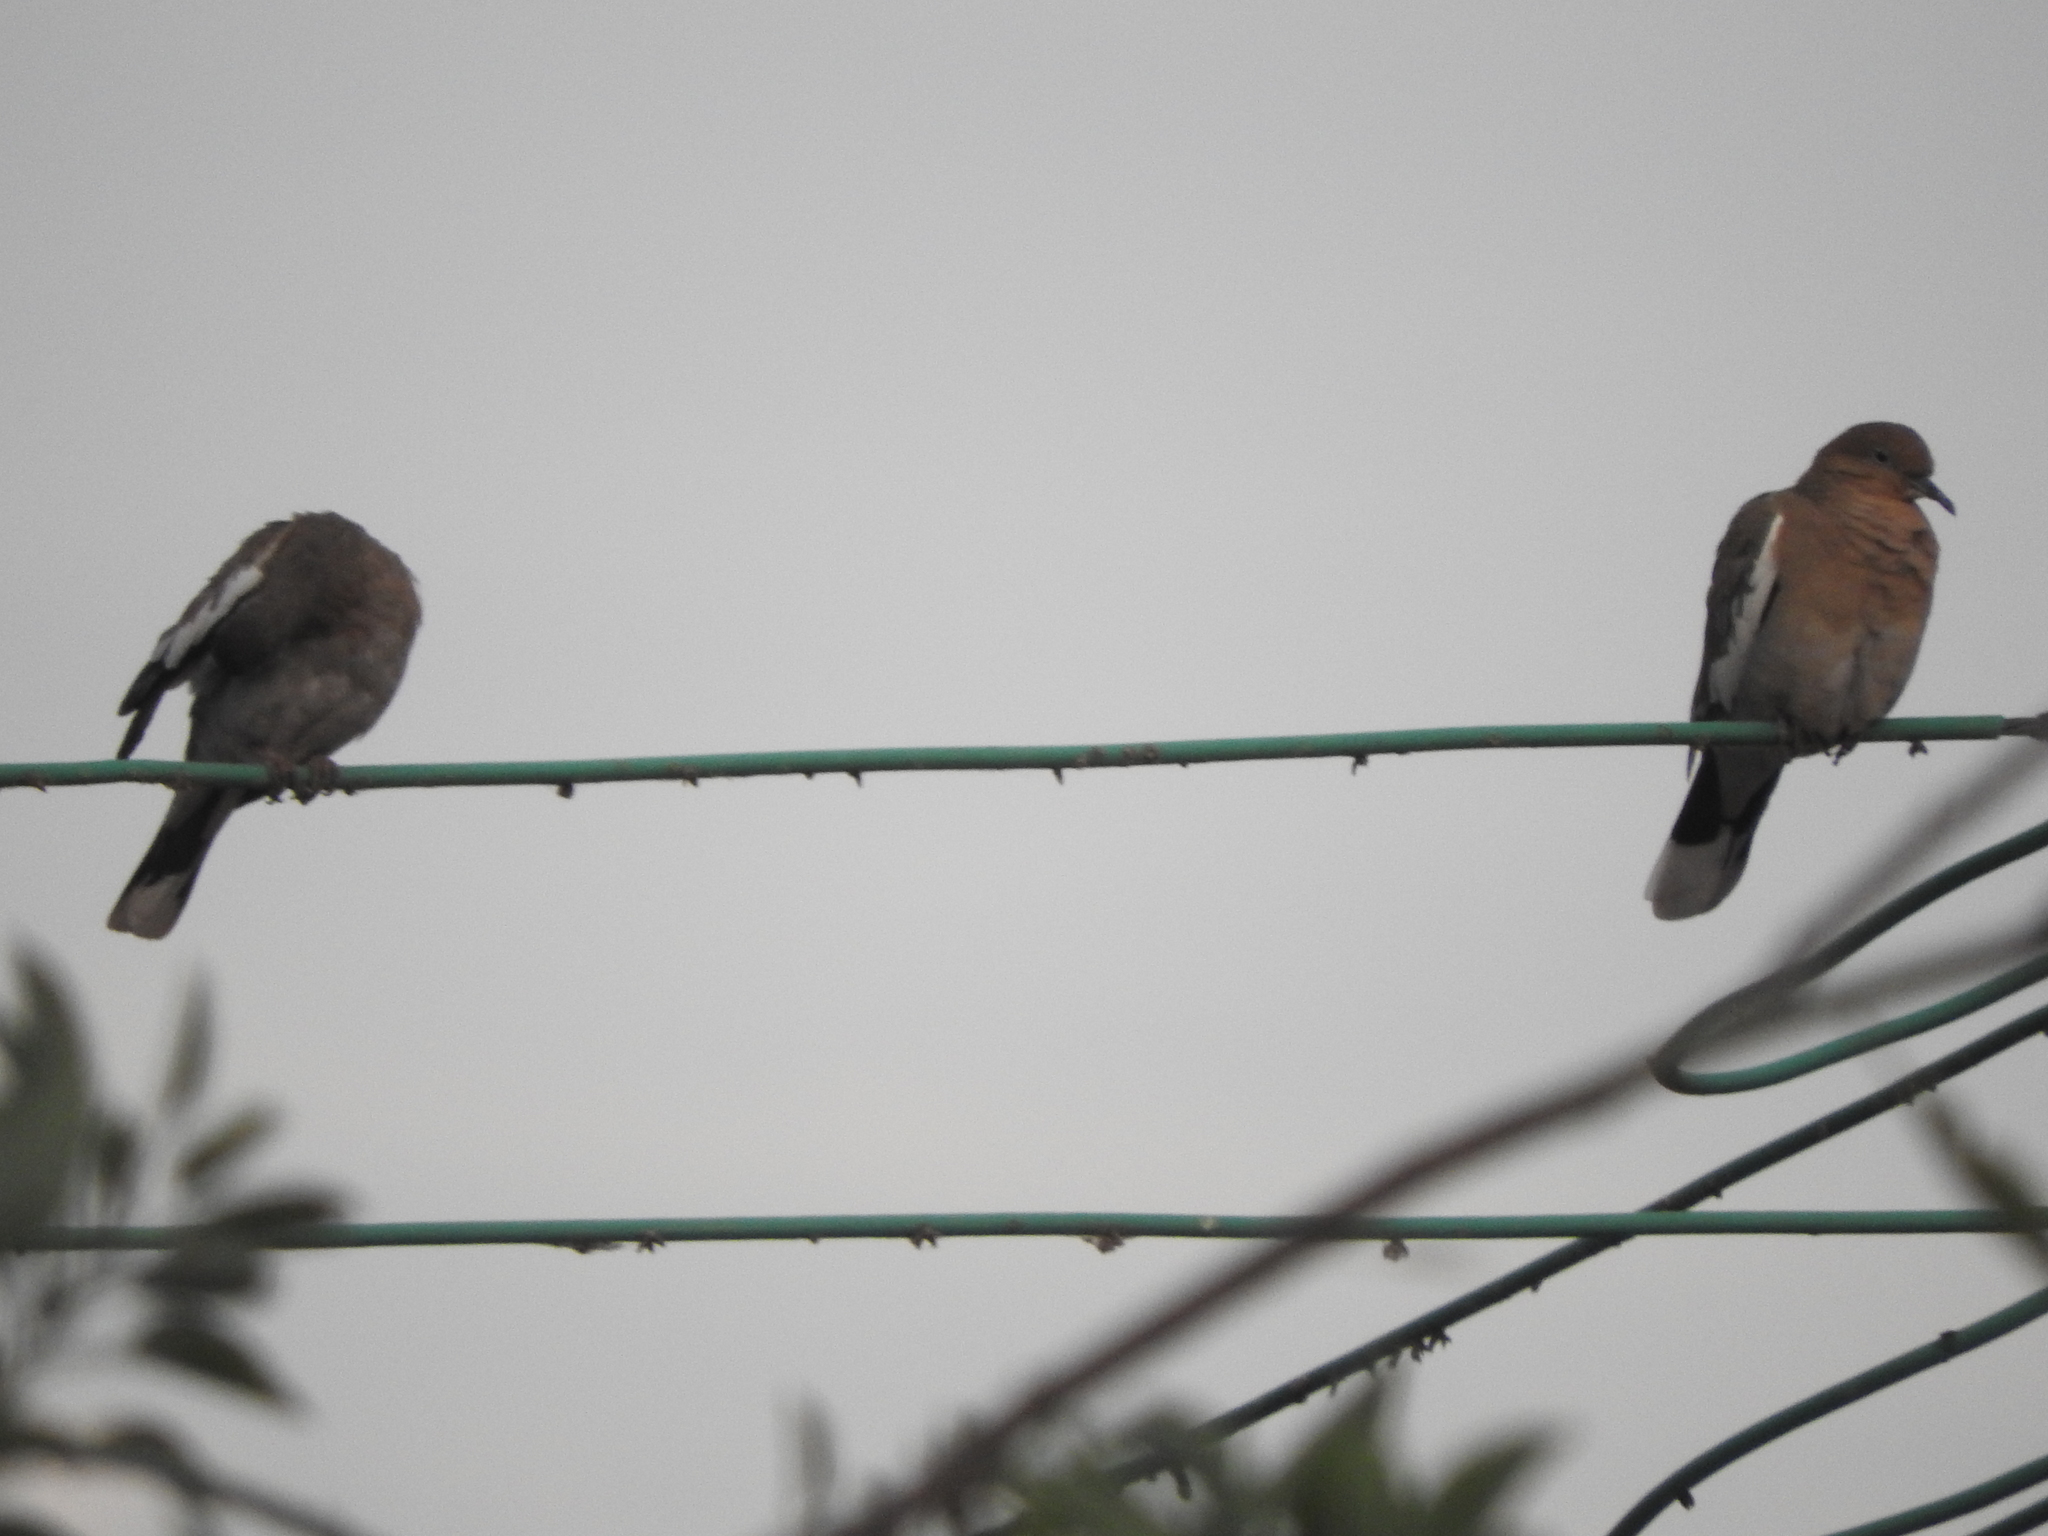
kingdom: Animalia
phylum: Chordata
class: Aves
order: Columbiformes
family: Columbidae
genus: Zenaida
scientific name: Zenaida asiatica
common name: White-winged dove
